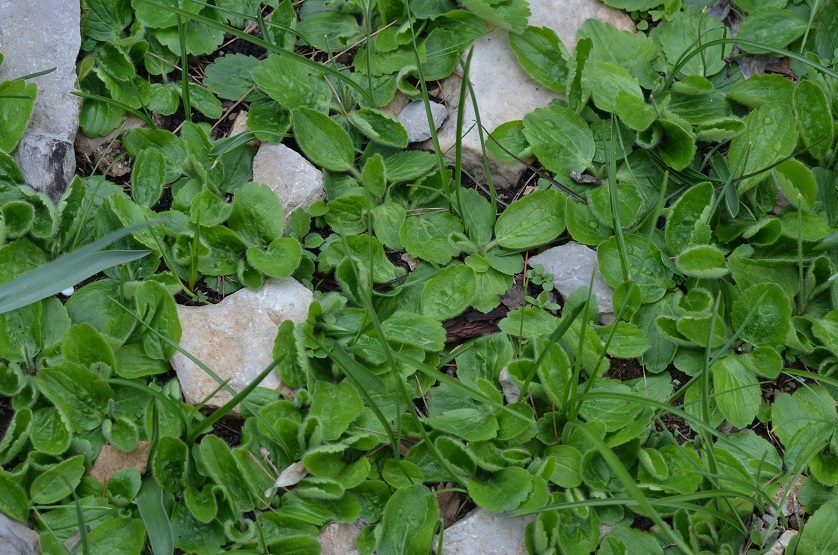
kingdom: Plantae
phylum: Tracheophyta
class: Magnoliopsida
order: Ranunculales
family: Ranunculaceae
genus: Ranunculus
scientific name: Ranunculus bullatus
